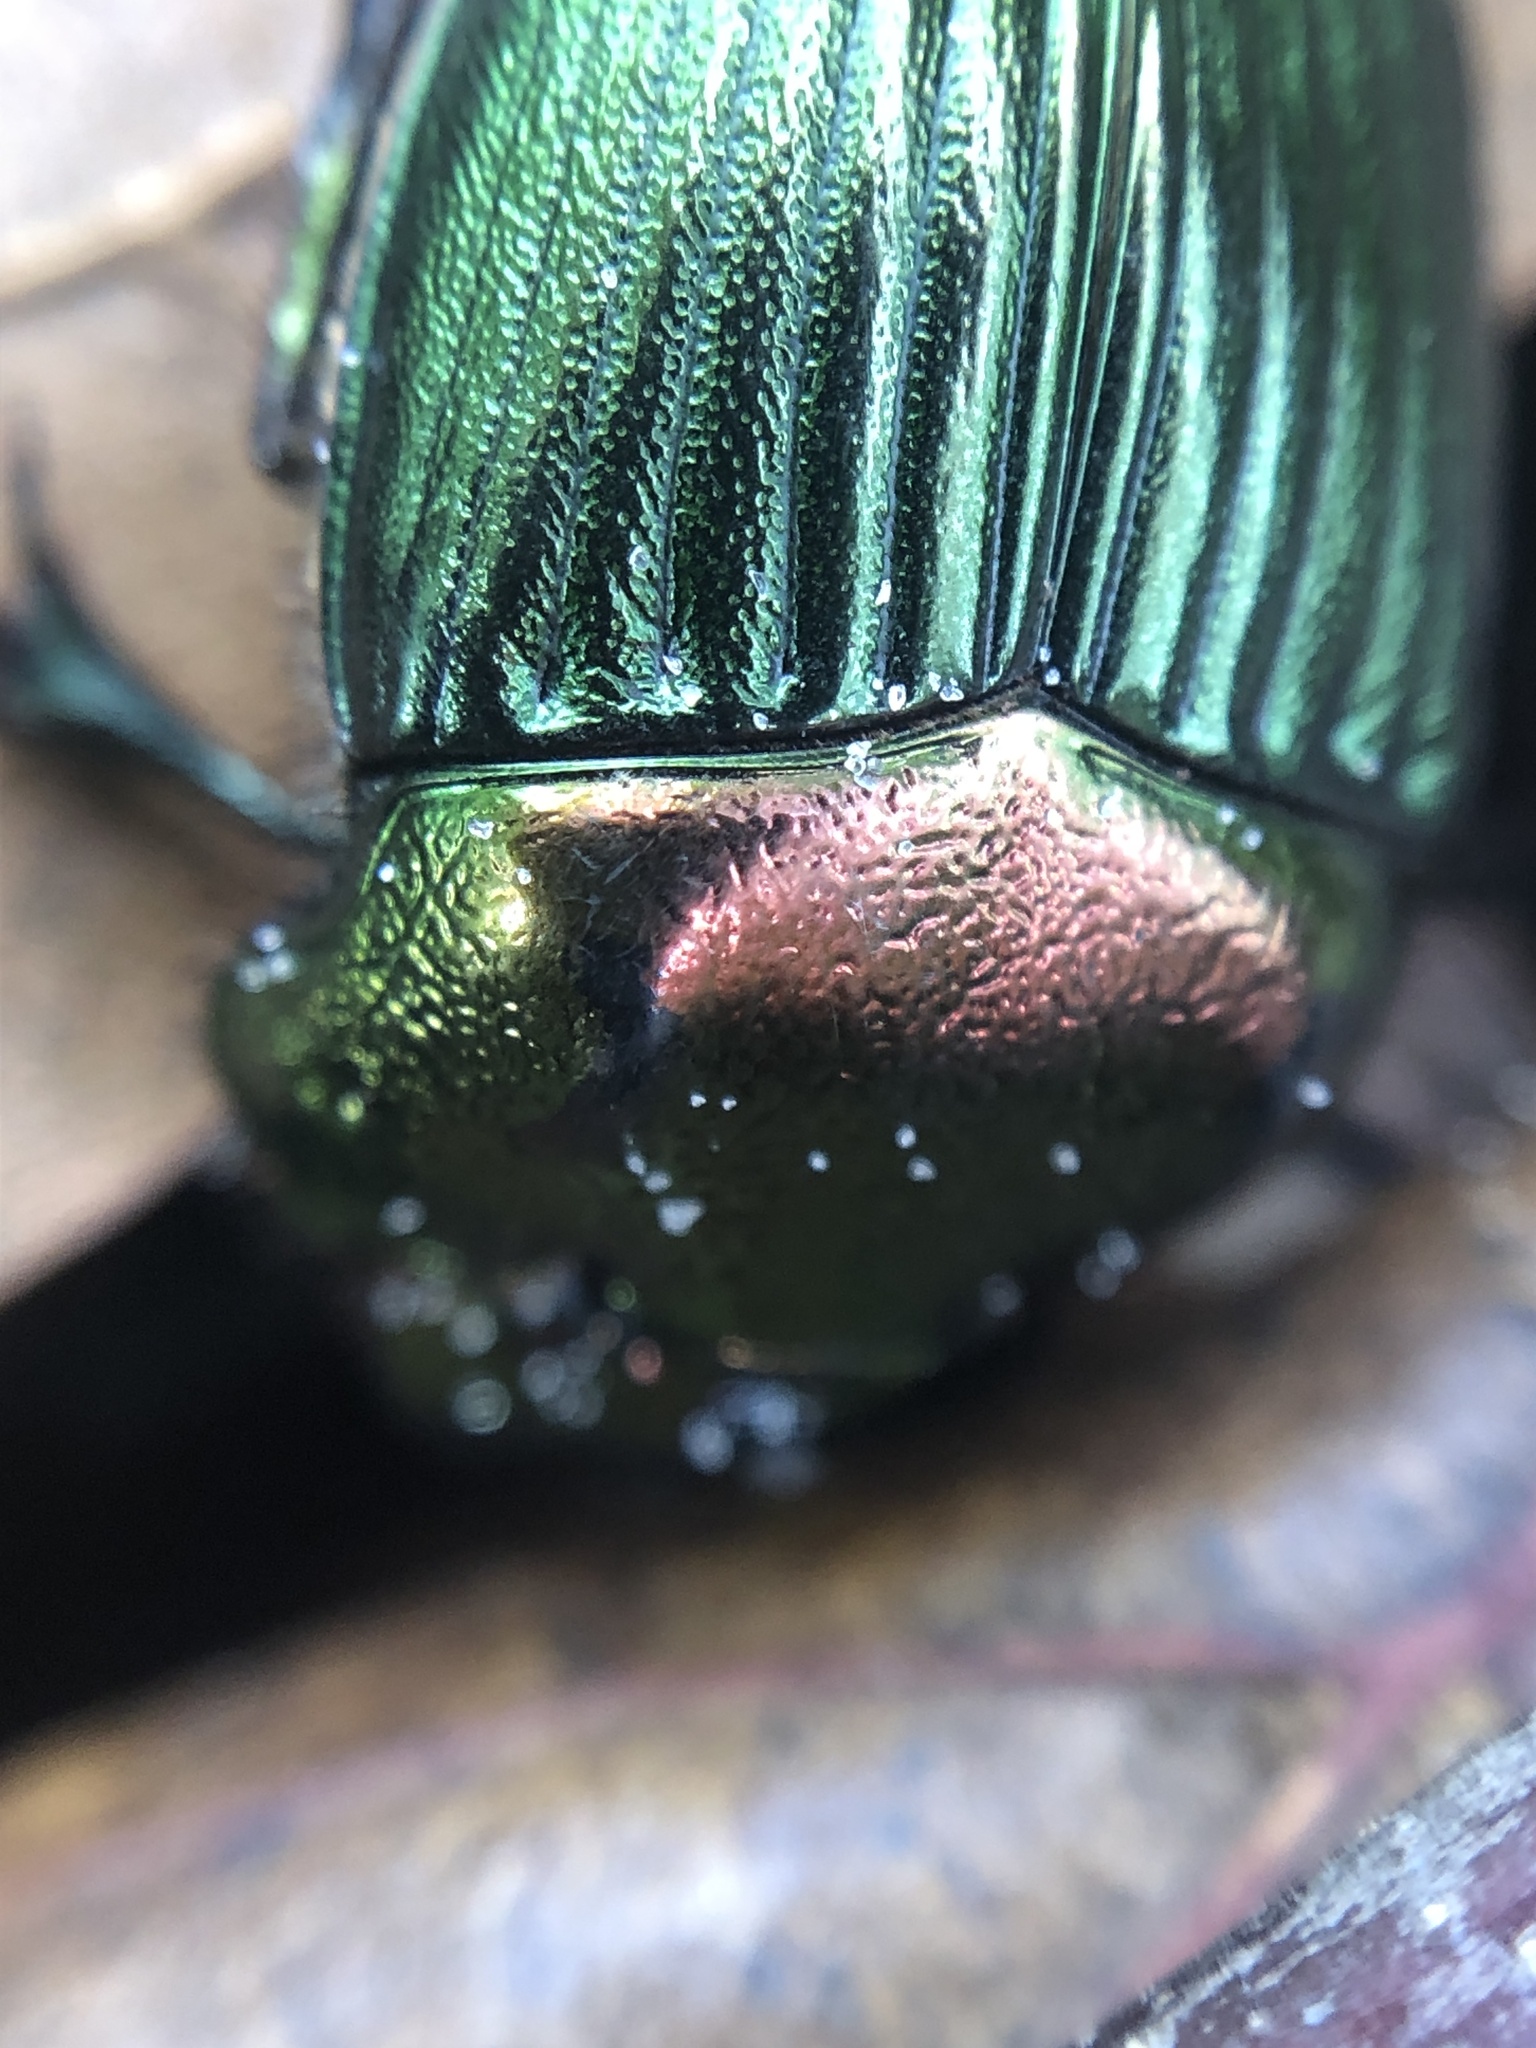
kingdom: Animalia
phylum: Arthropoda
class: Insecta
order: Coleoptera
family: Scarabaeidae
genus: Phanaeus
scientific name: Phanaeus igneus
